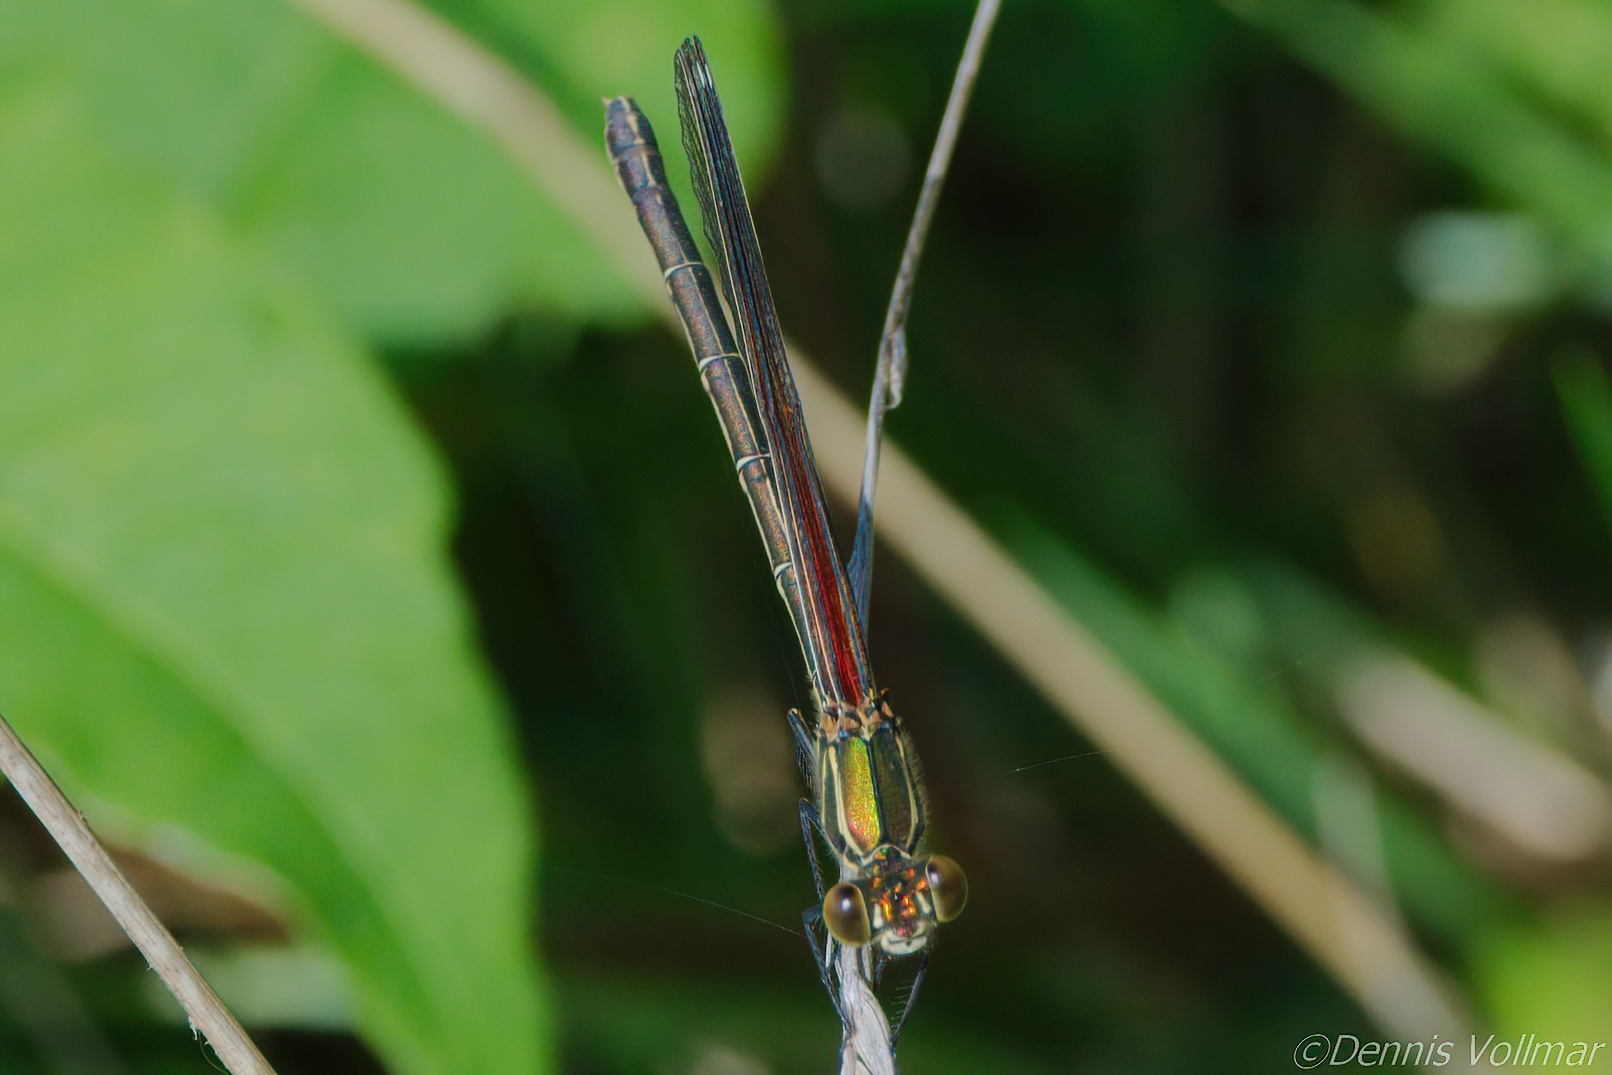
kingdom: Animalia
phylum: Arthropoda
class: Insecta
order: Odonata
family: Calopterygidae
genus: Hetaerina
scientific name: Hetaerina americana
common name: American rubyspot
